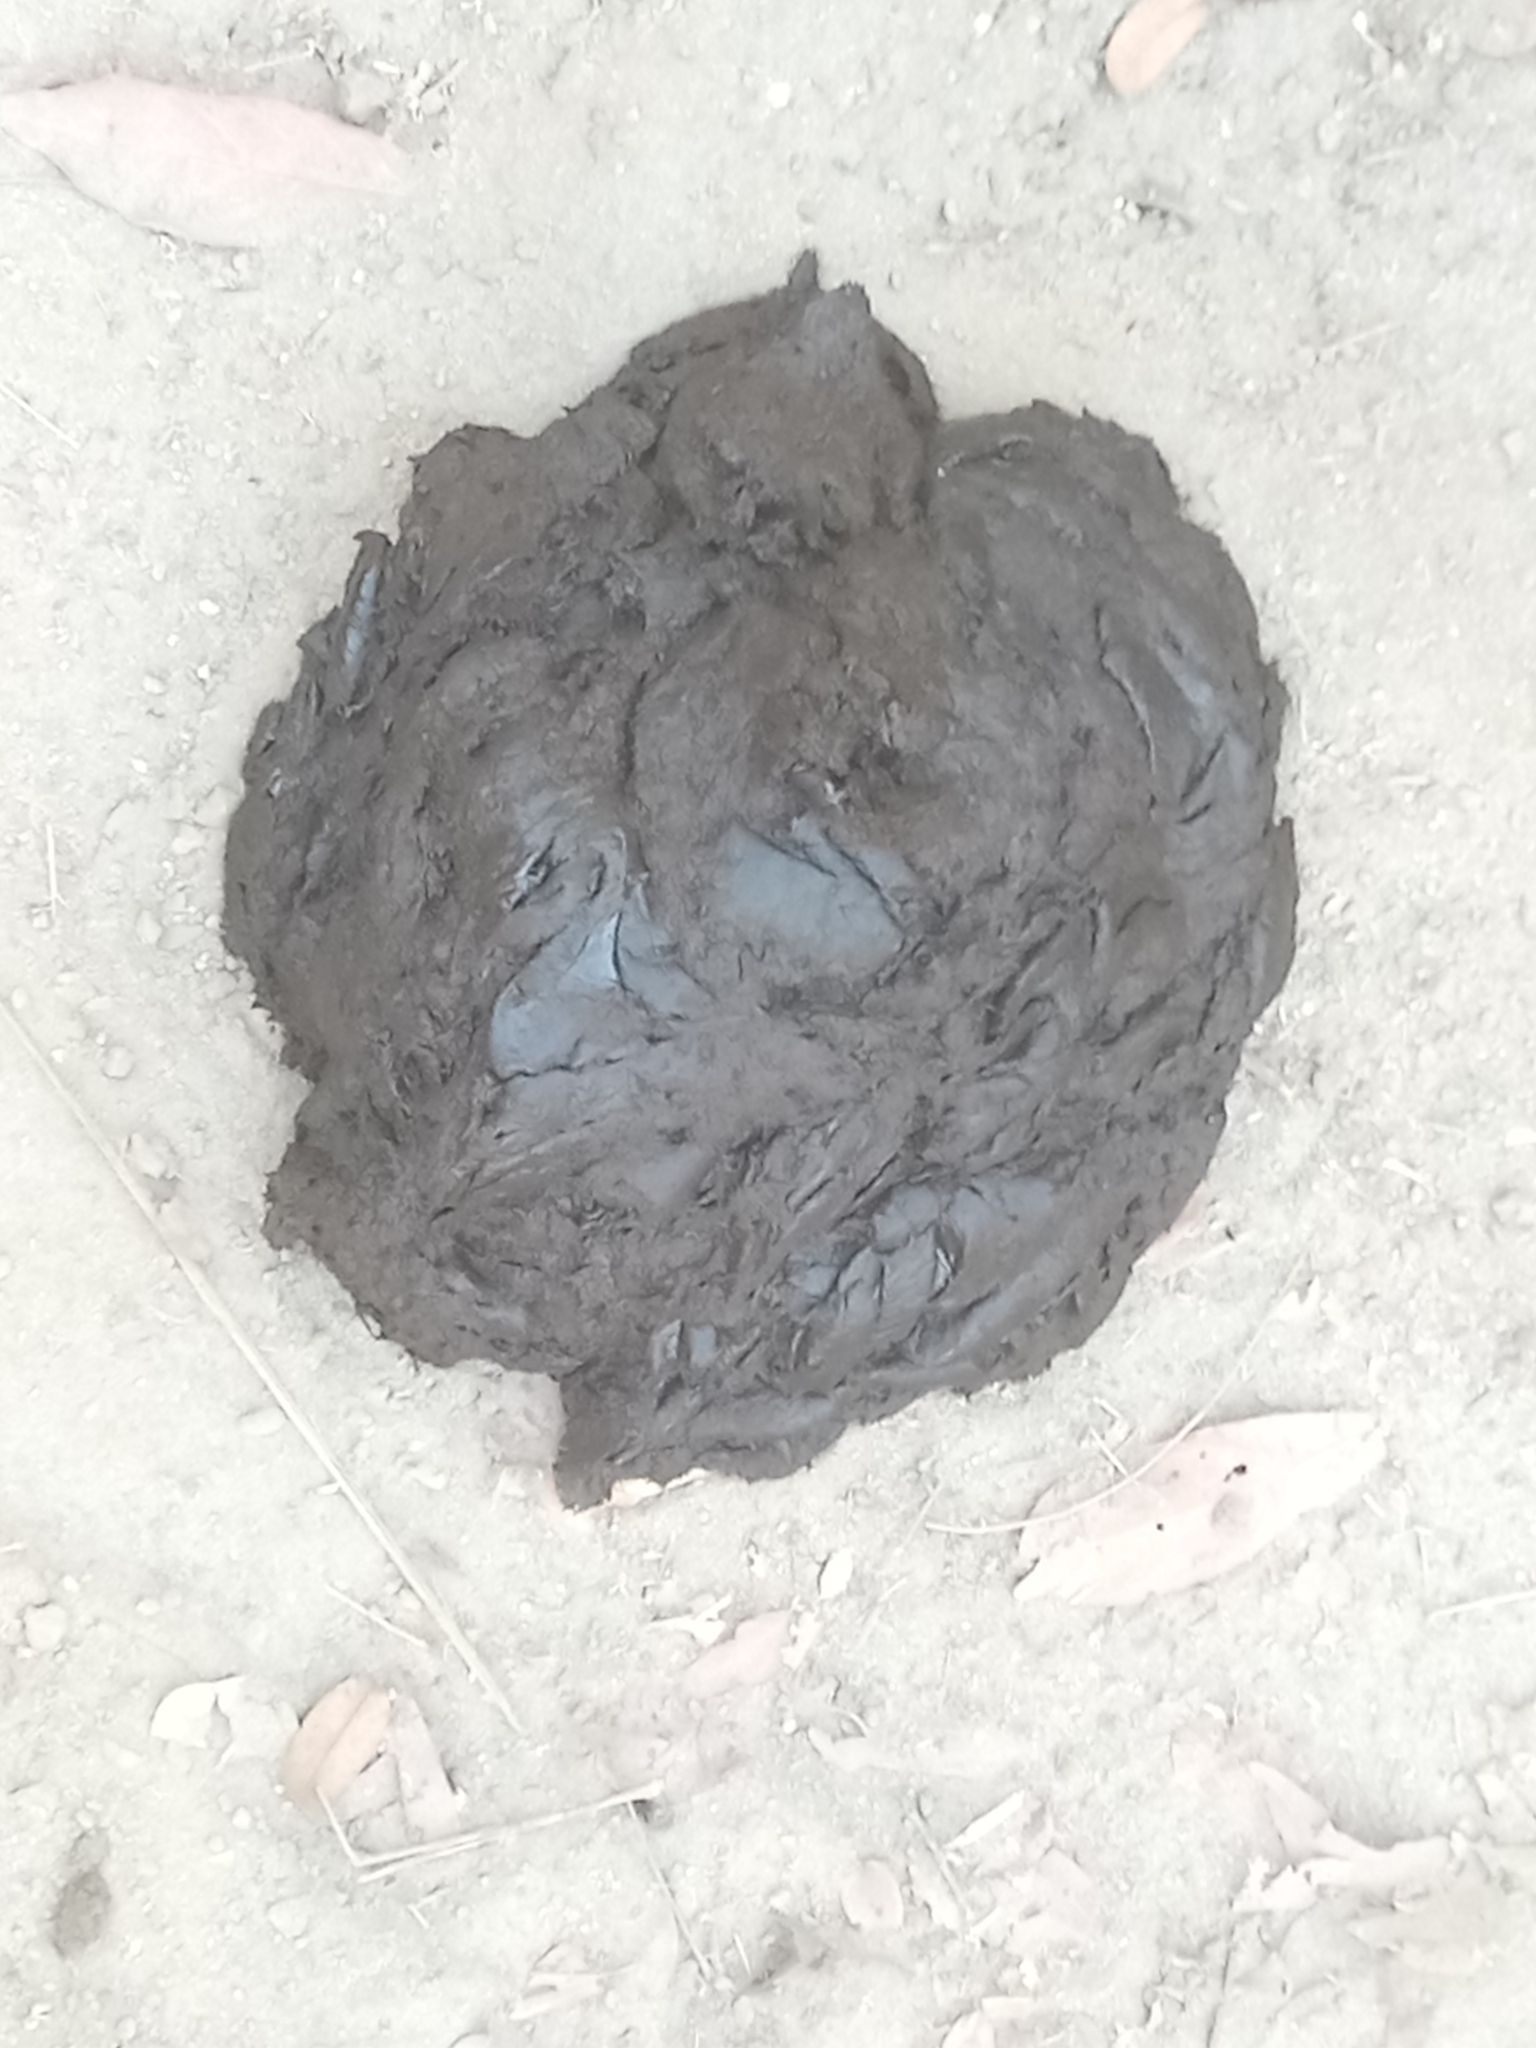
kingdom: Animalia
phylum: Chordata
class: Mammalia
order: Artiodactyla
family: Bovidae
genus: Syncerus
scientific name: Syncerus caffer
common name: African buffalo
